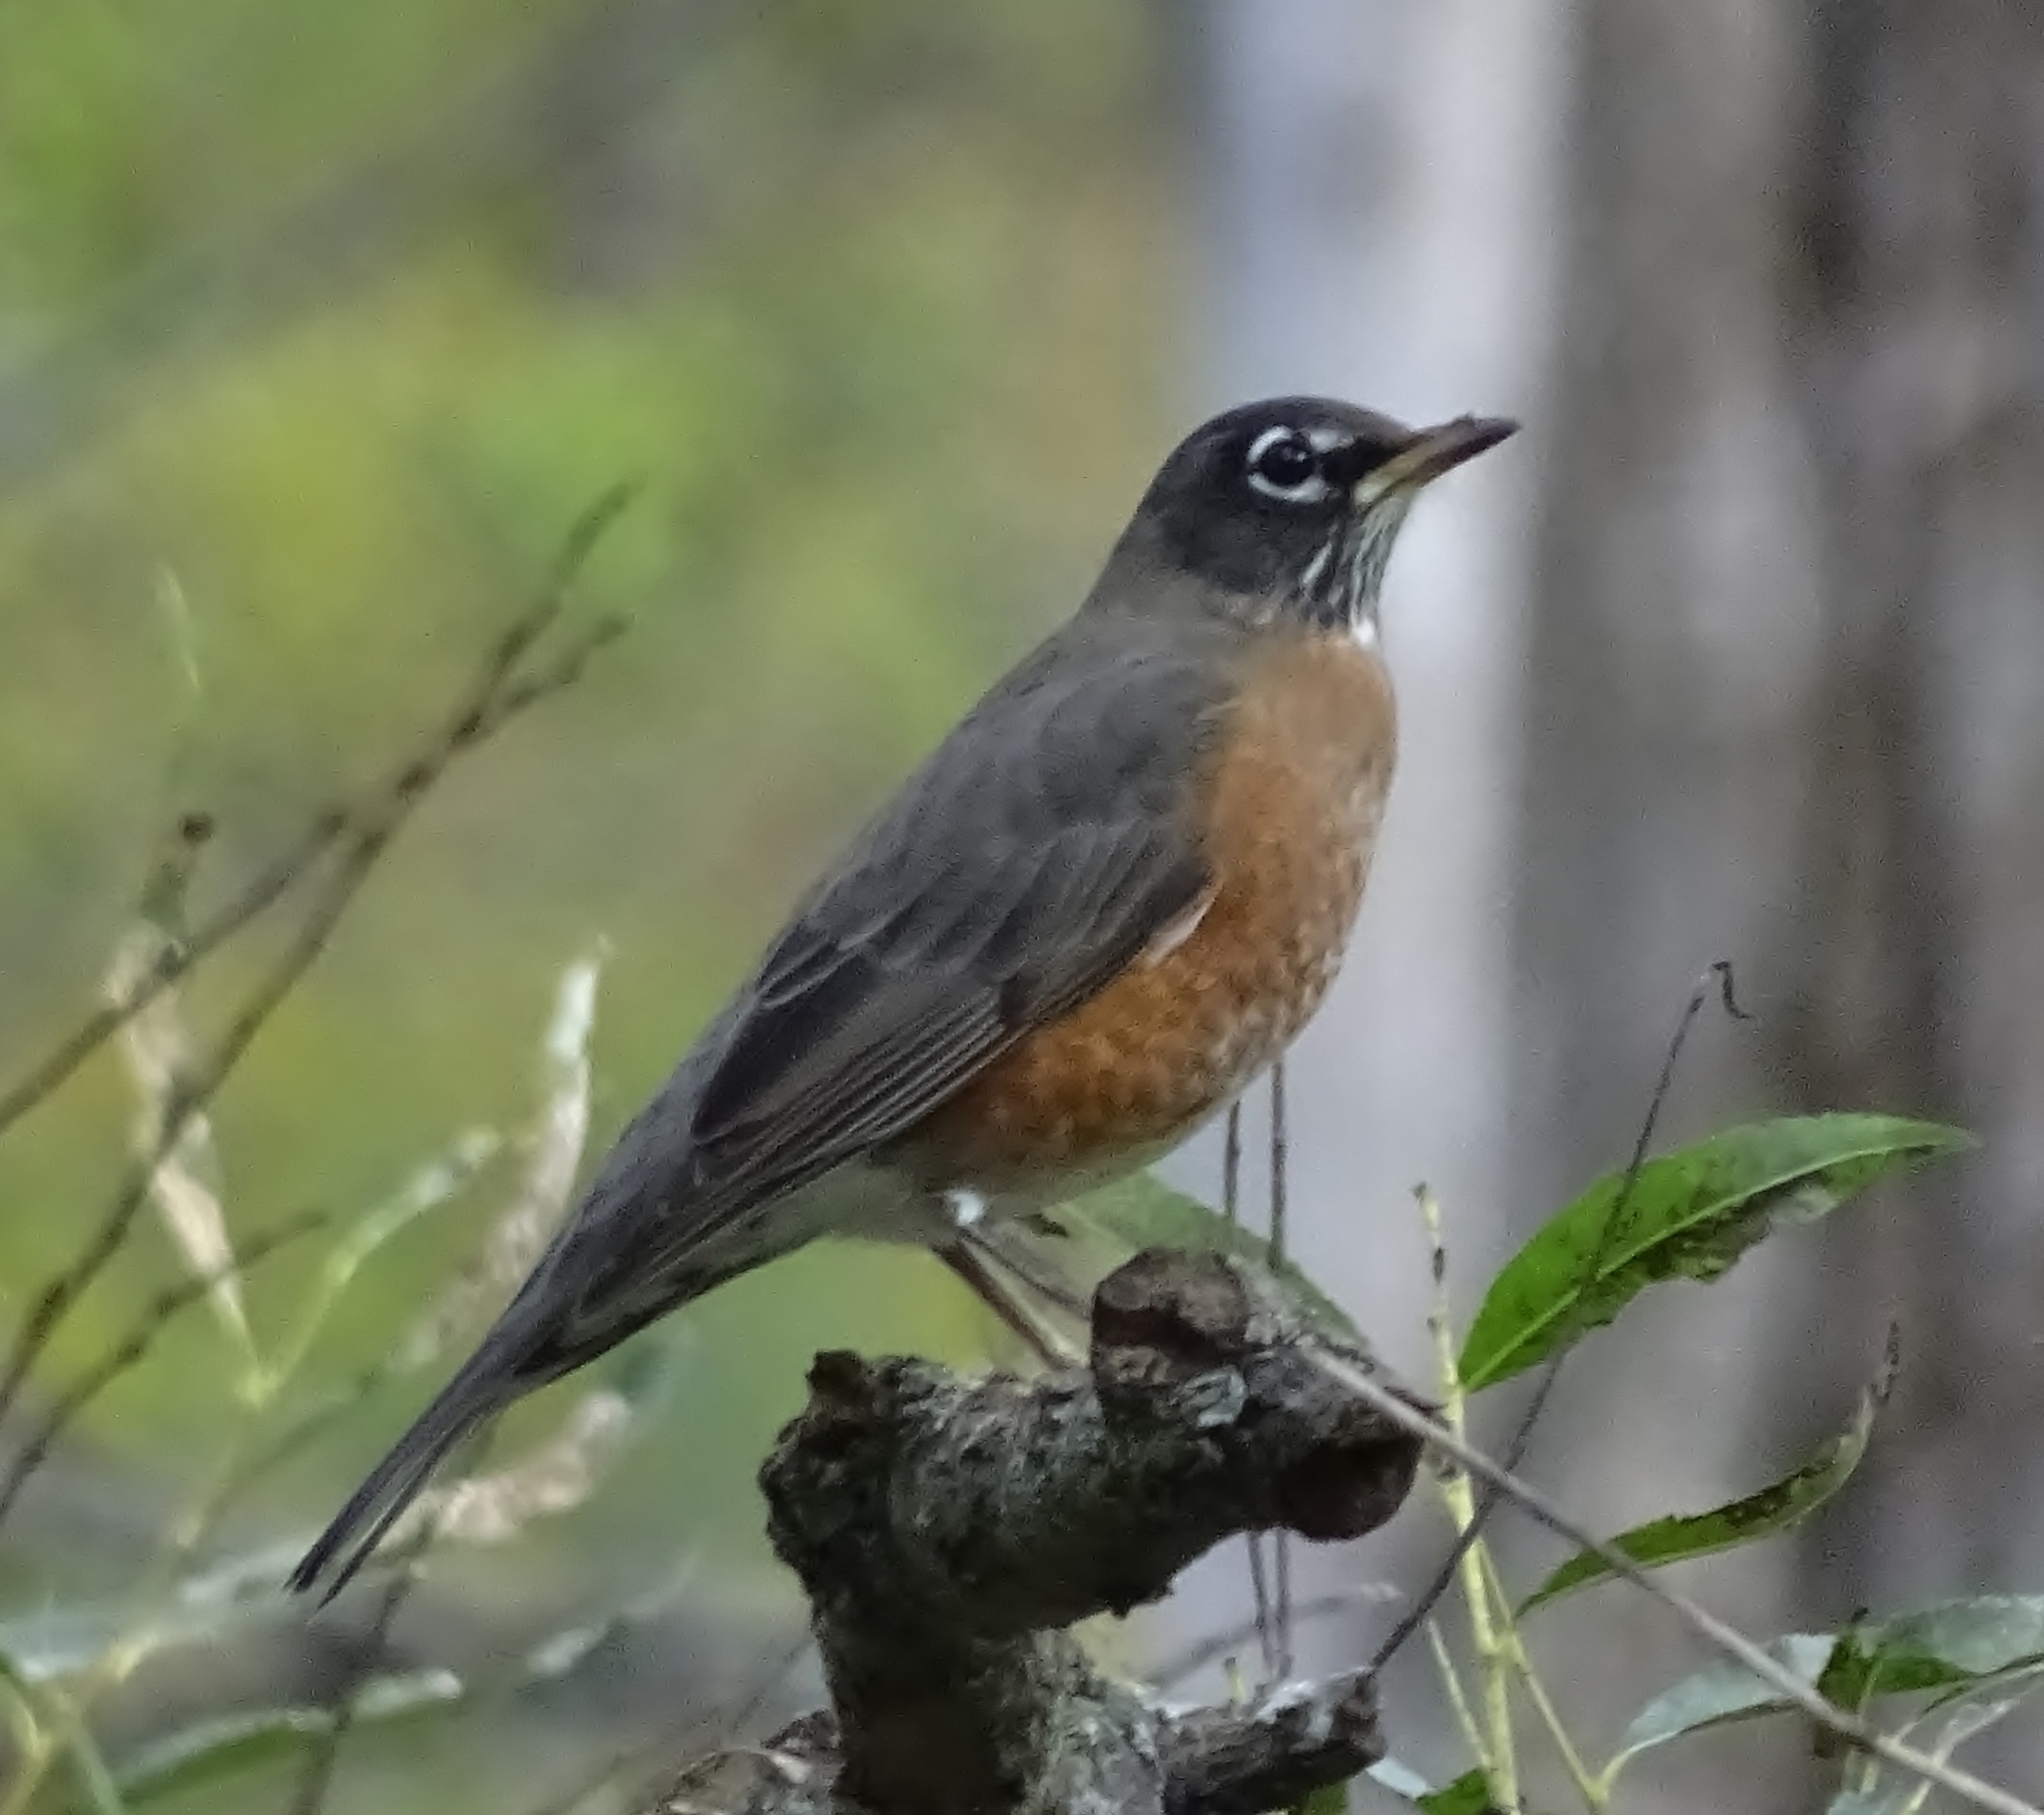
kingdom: Animalia
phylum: Chordata
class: Aves
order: Passeriformes
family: Turdidae
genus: Turdus
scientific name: Turdus migratorius
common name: American robin
